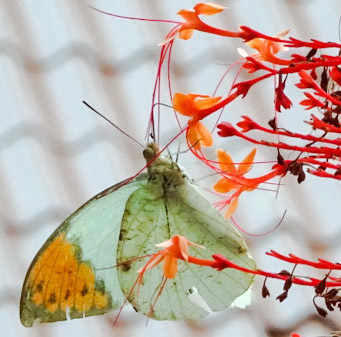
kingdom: Animalia
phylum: Arthropoda
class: Insecta
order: Lepidoptera
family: Pieridae
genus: Hebomoia
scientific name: Hebomoia glaucippe
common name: Great orange tip
